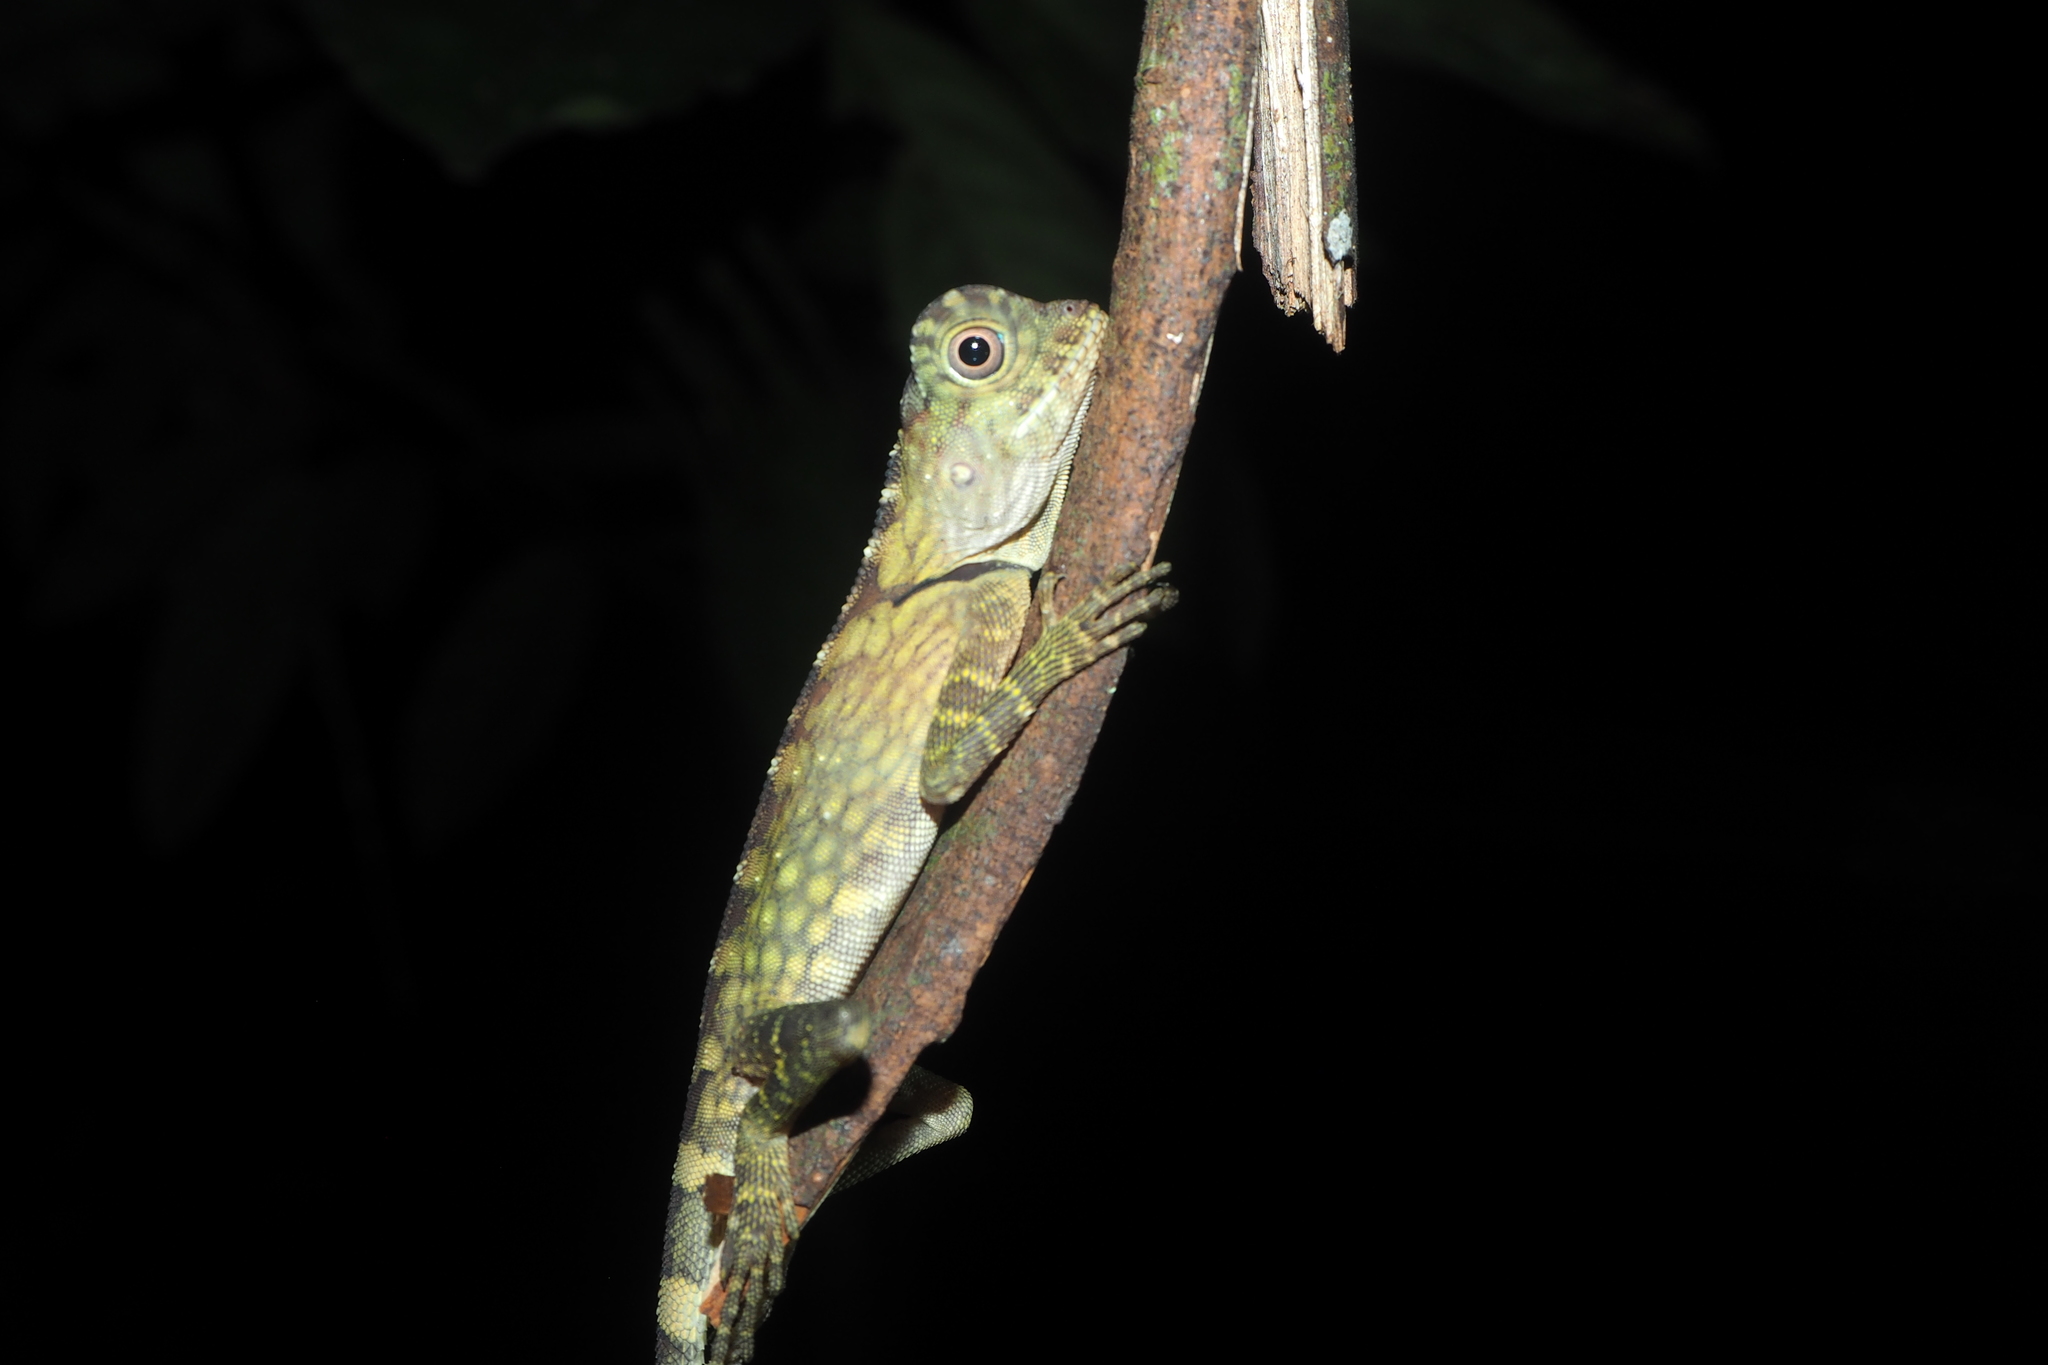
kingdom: Animalia
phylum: Chordata
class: Squamata
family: Agamidae
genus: Gonocephalus
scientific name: Gonocephalus bornensis
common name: Borneo forest dragon
